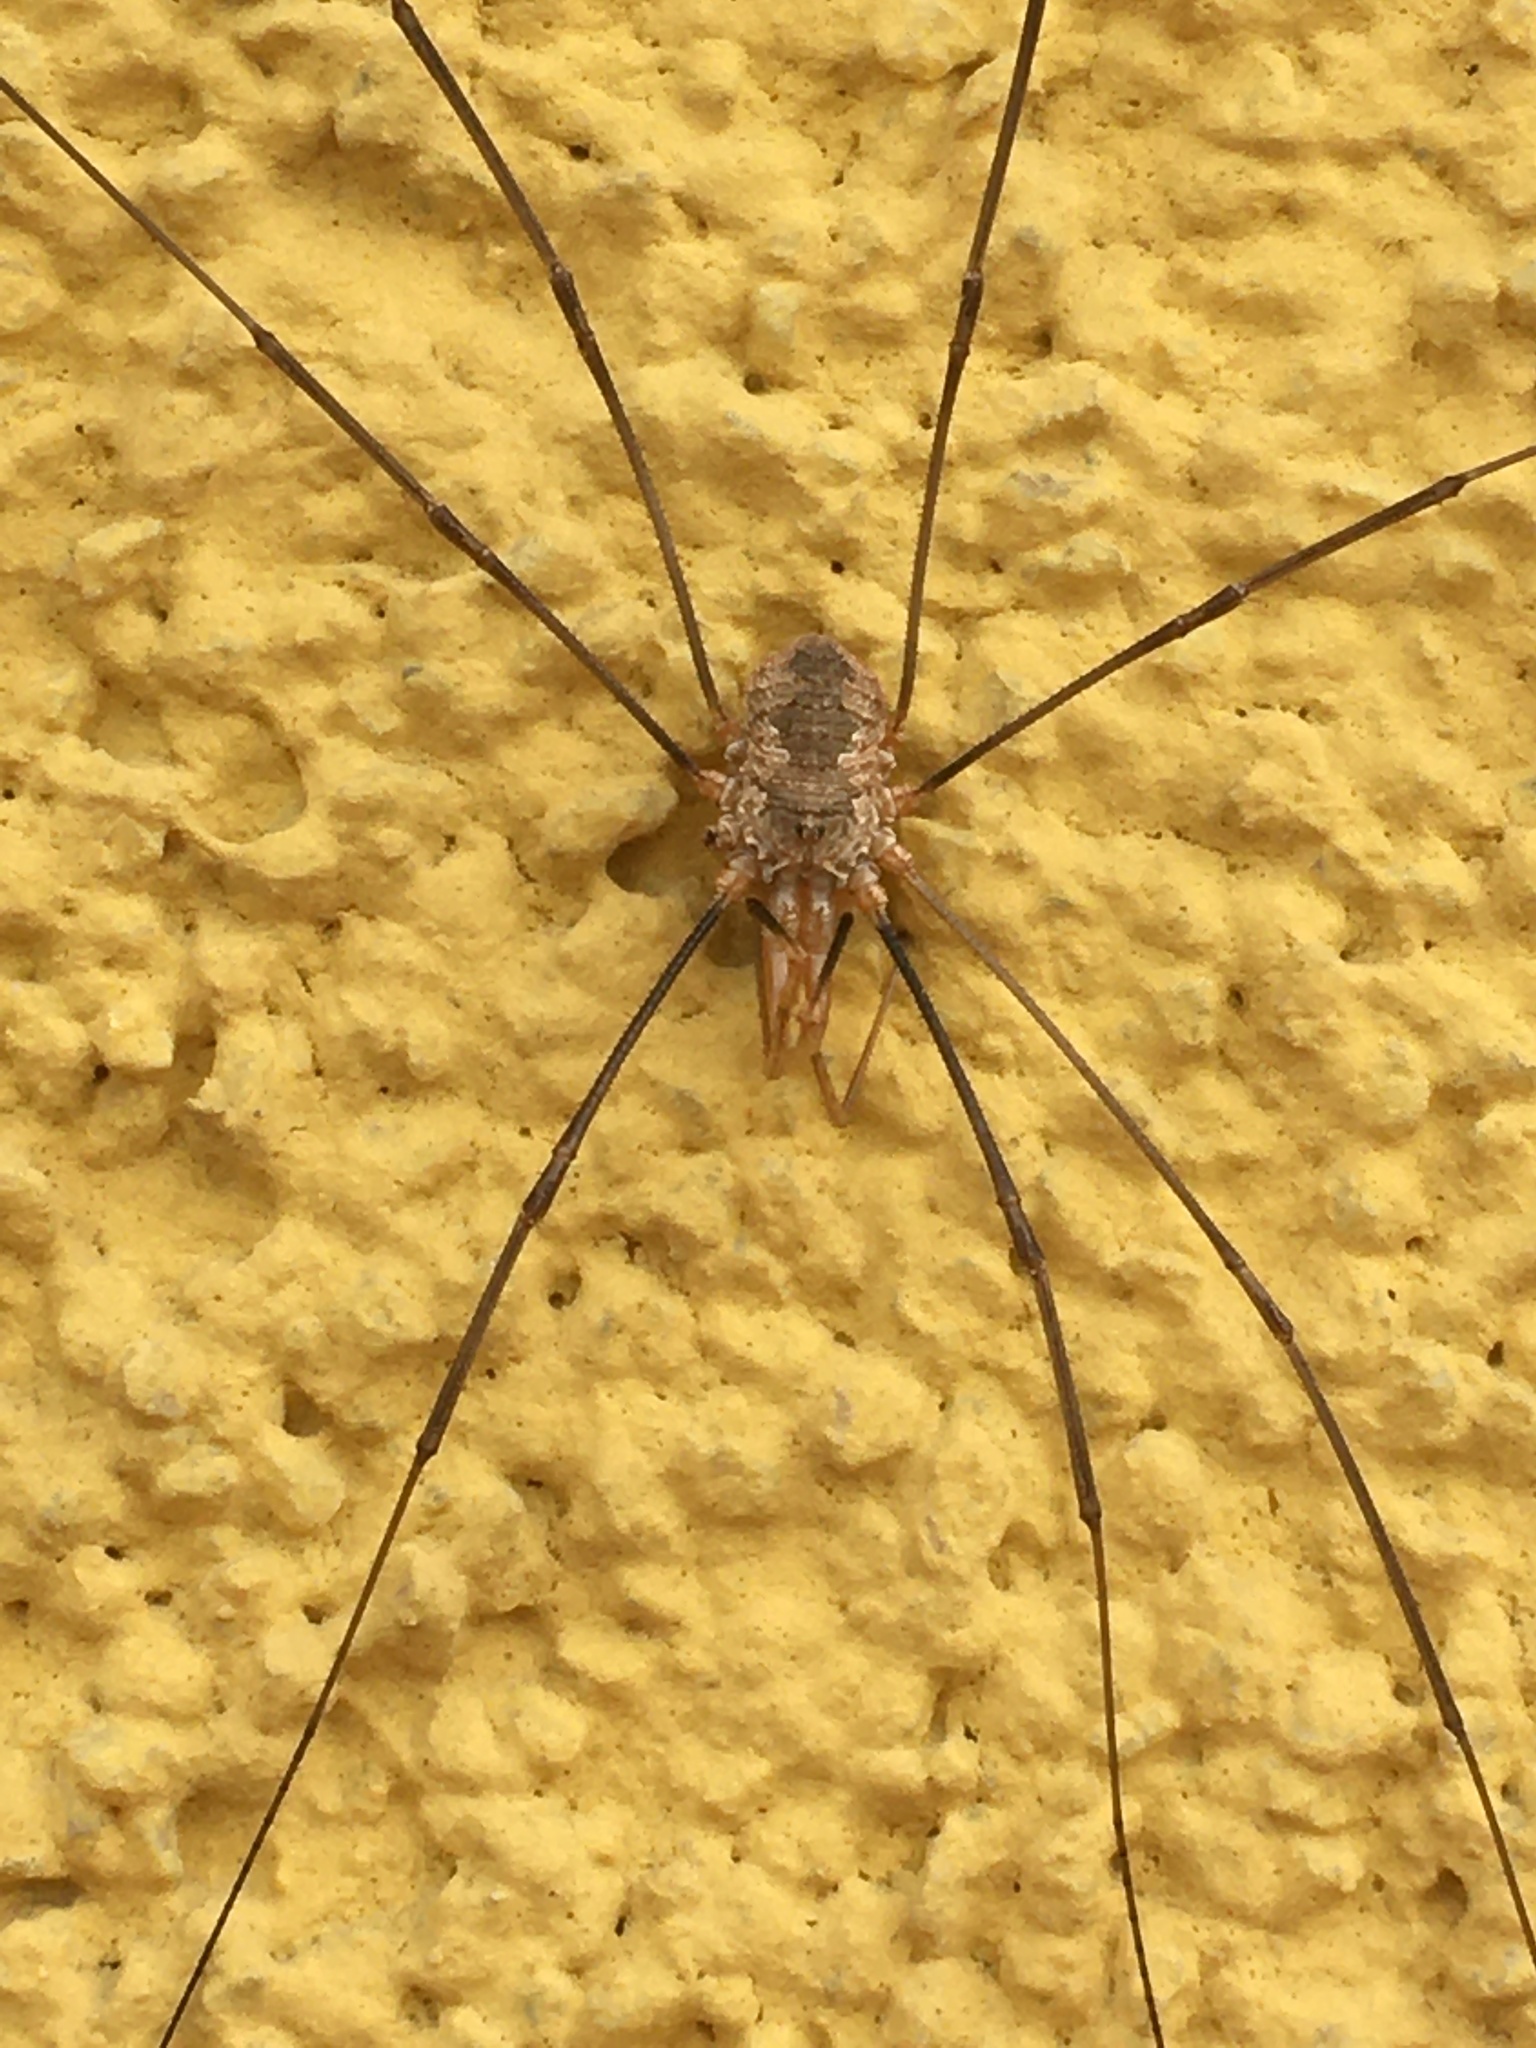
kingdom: Animalia
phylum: Arthropoda
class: Arachnida
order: Opiliones
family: Phalangiidae
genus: Phalangium
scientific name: Phalangium opilio
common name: Daddy longleg
